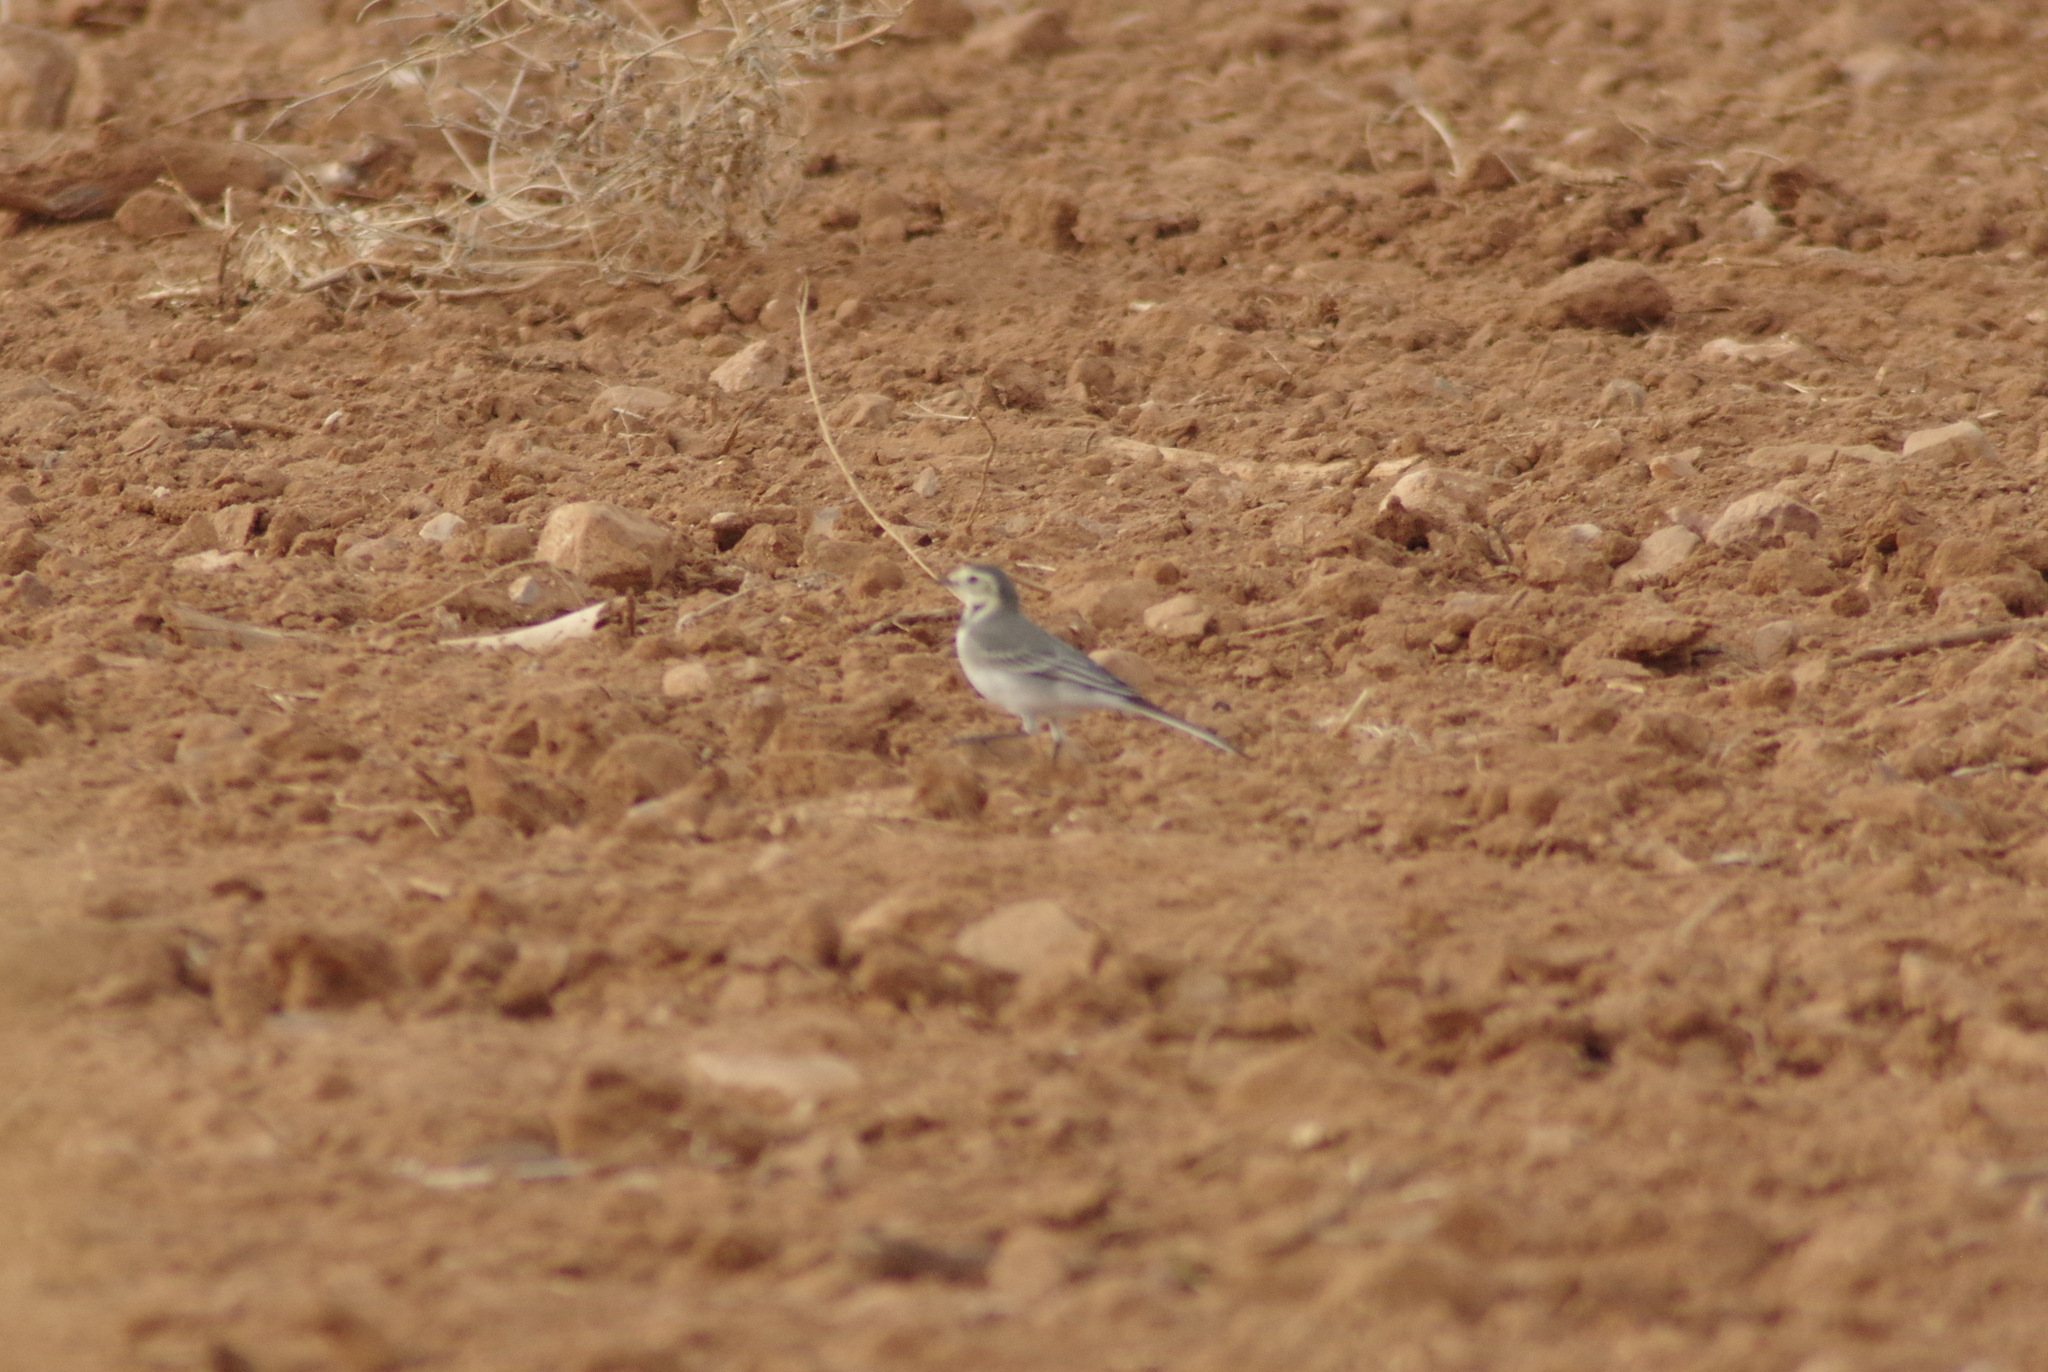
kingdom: Animalia
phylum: Chordata
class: Aves
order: Passeriformes
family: Motacillidae
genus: Motacilla
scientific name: Motacilla alba
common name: White wagtail
